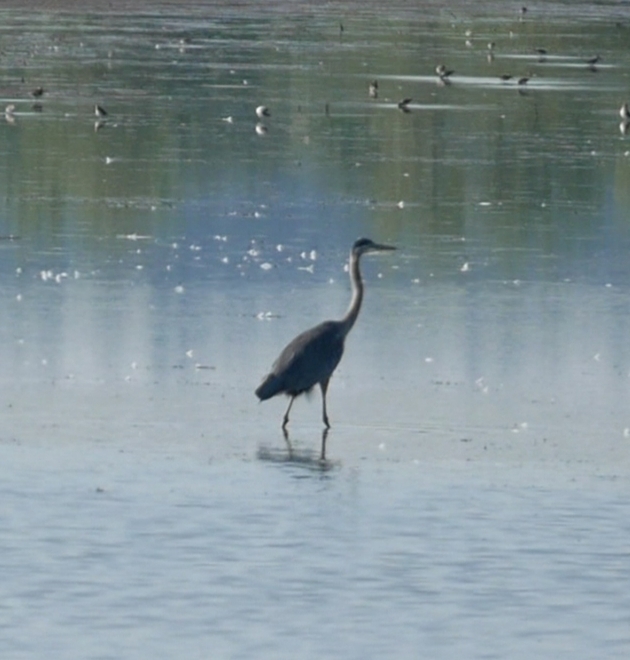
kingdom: Animalia
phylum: Chordata
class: Aves
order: Pelecaniformes
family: Ardeidae
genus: Ardea
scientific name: Ardea herodias
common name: Great blue heron
